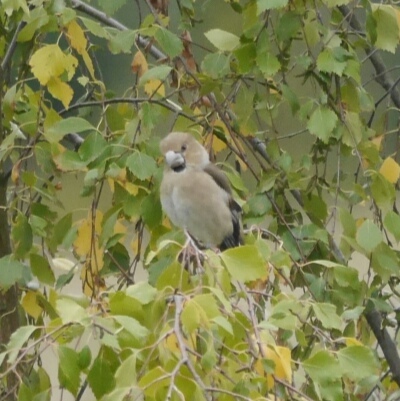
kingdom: Animalia
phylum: Chordata
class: Aves
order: Passeriformes
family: Fringillidae
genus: Coccothraustes
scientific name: Coccothraustes coccothraustes
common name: Hawfinch
